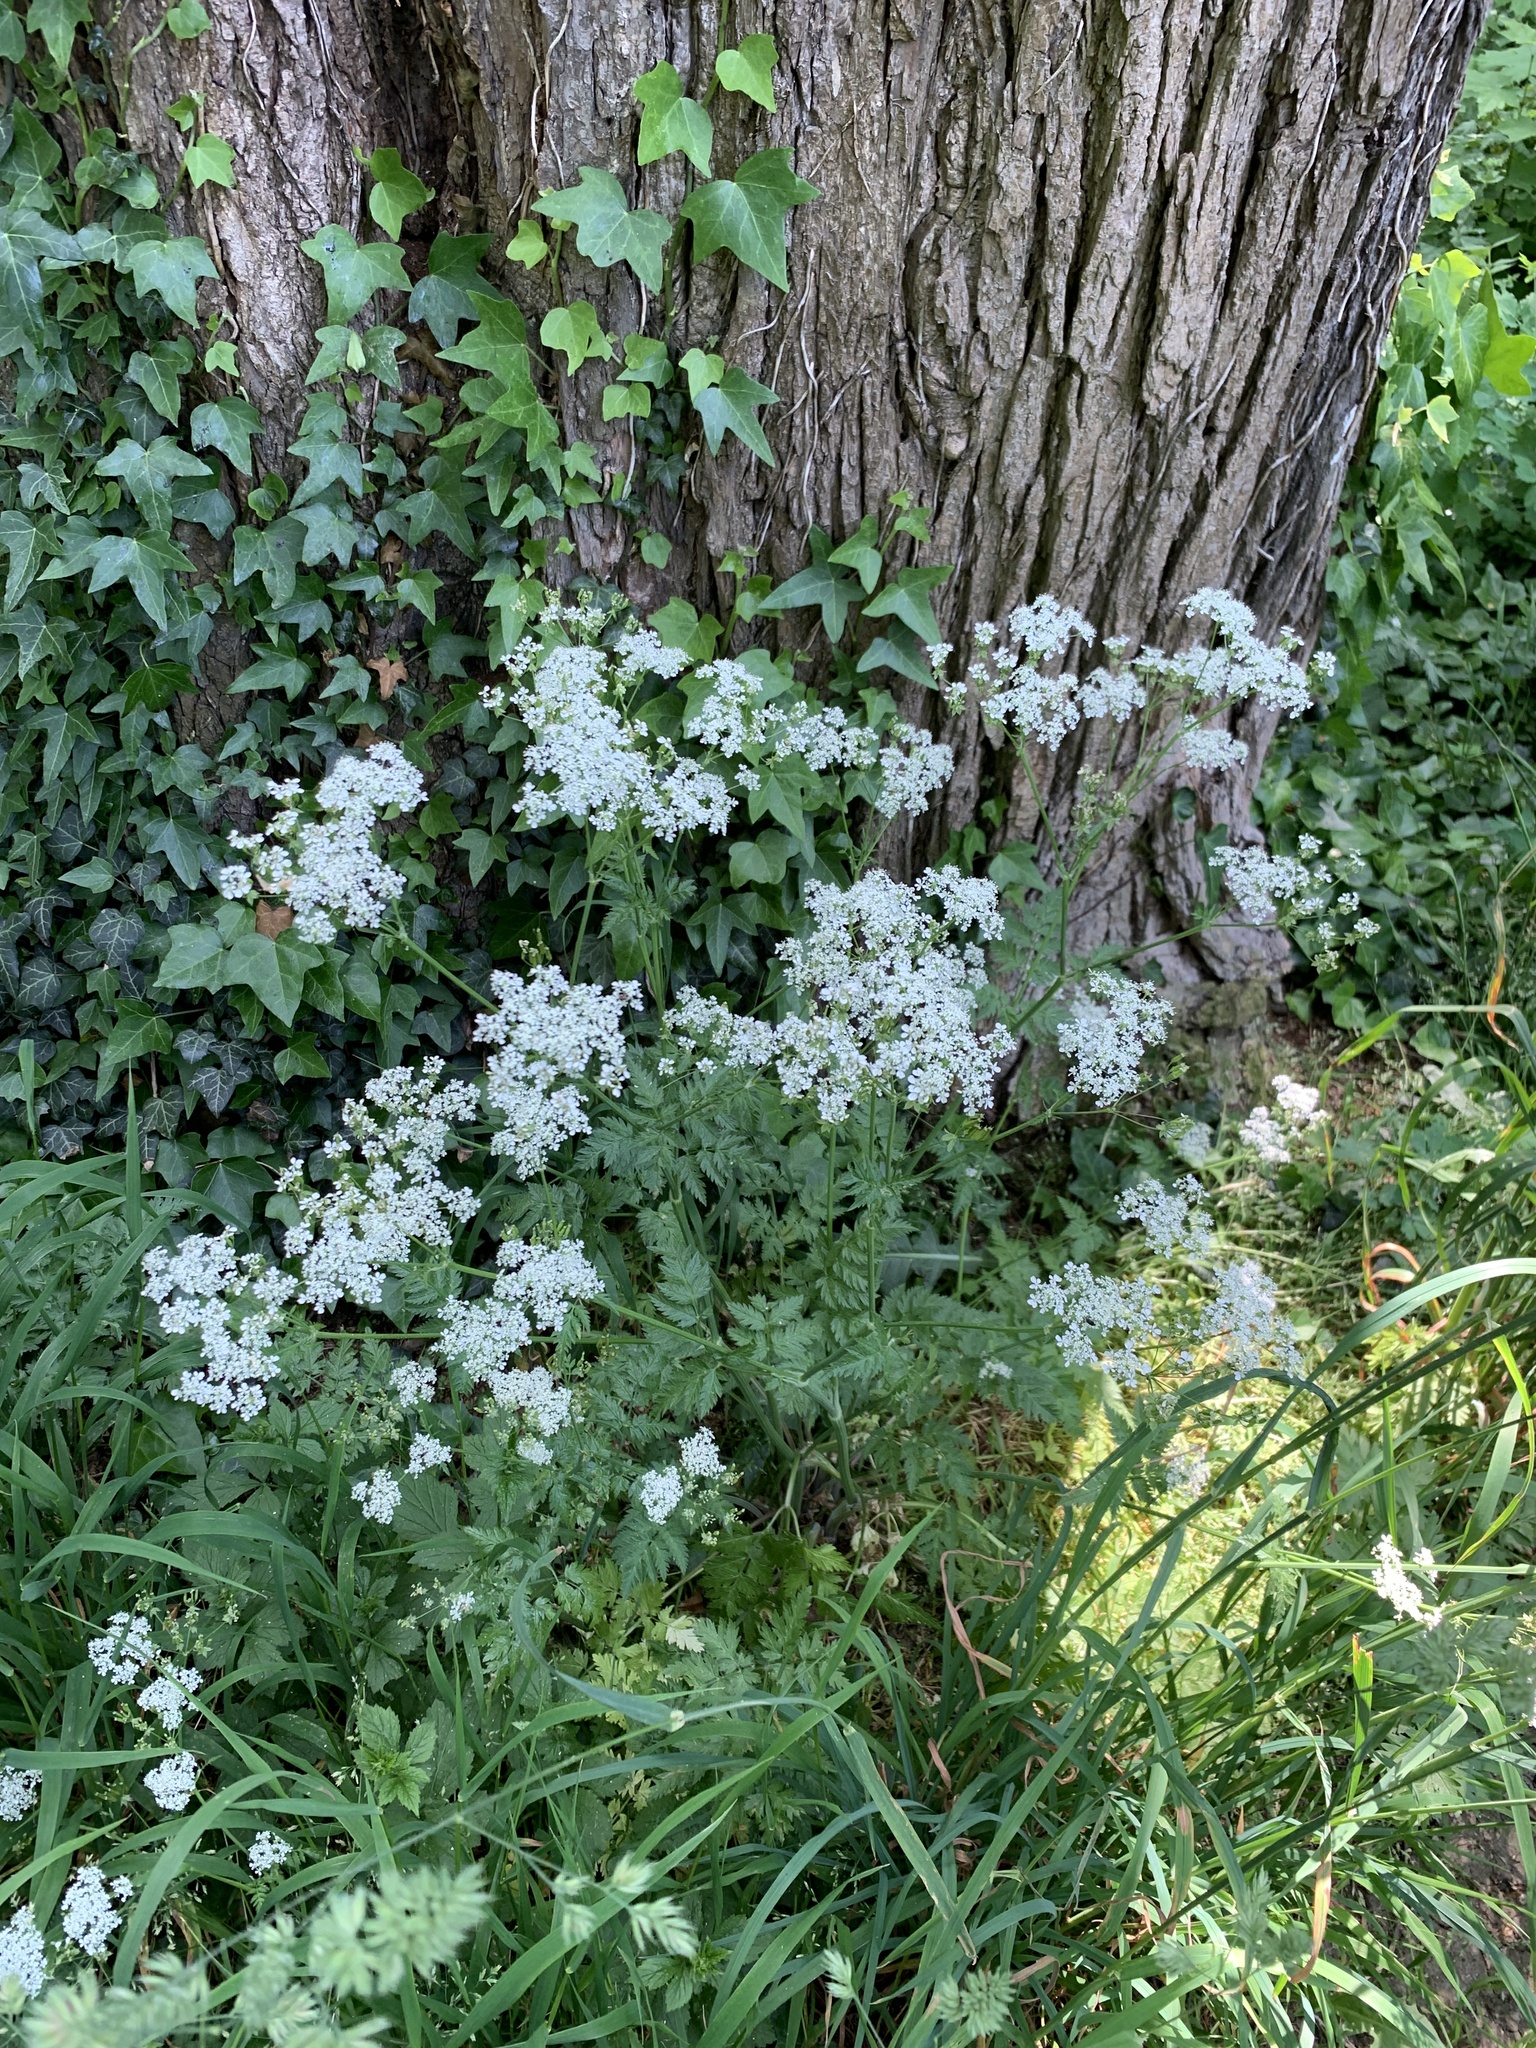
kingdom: Plantae
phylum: Tracheophyta
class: Magnoliopsida
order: Apiales
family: Apiaceae
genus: Anthriscus
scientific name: Anthriscus sylvestris
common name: Cow parsley
